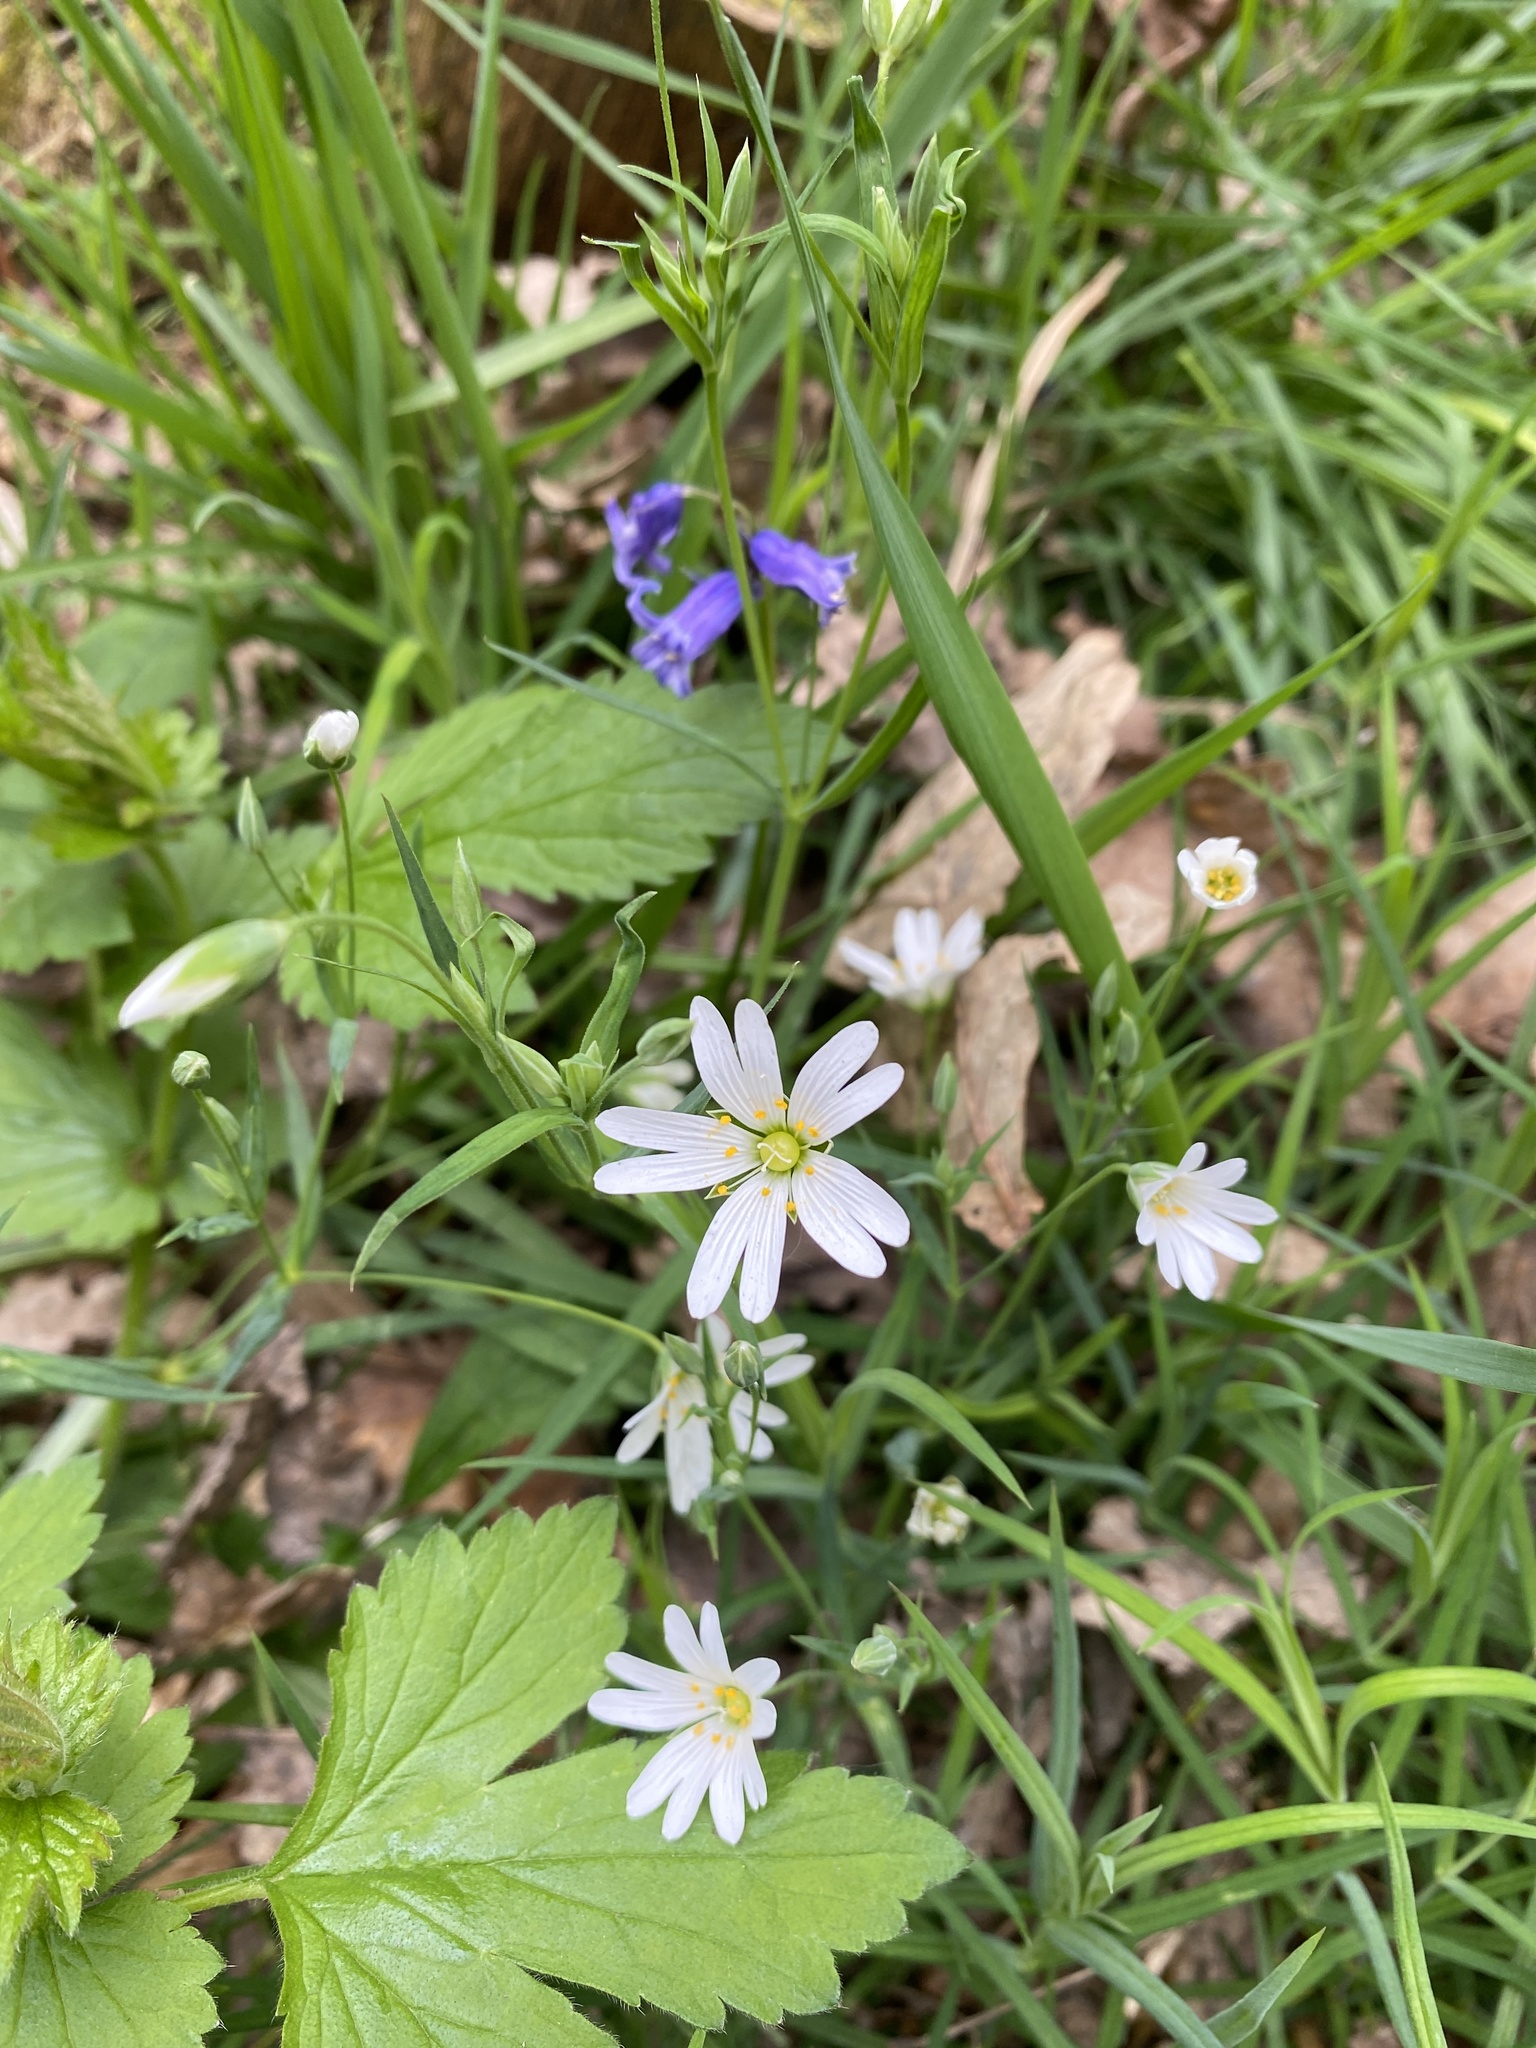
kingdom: Plantae
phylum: Tracheophyta
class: Magnoliopsida
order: Caryophyllales
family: Caryophyllaceae
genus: Rabelera
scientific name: Rabelera holostea
